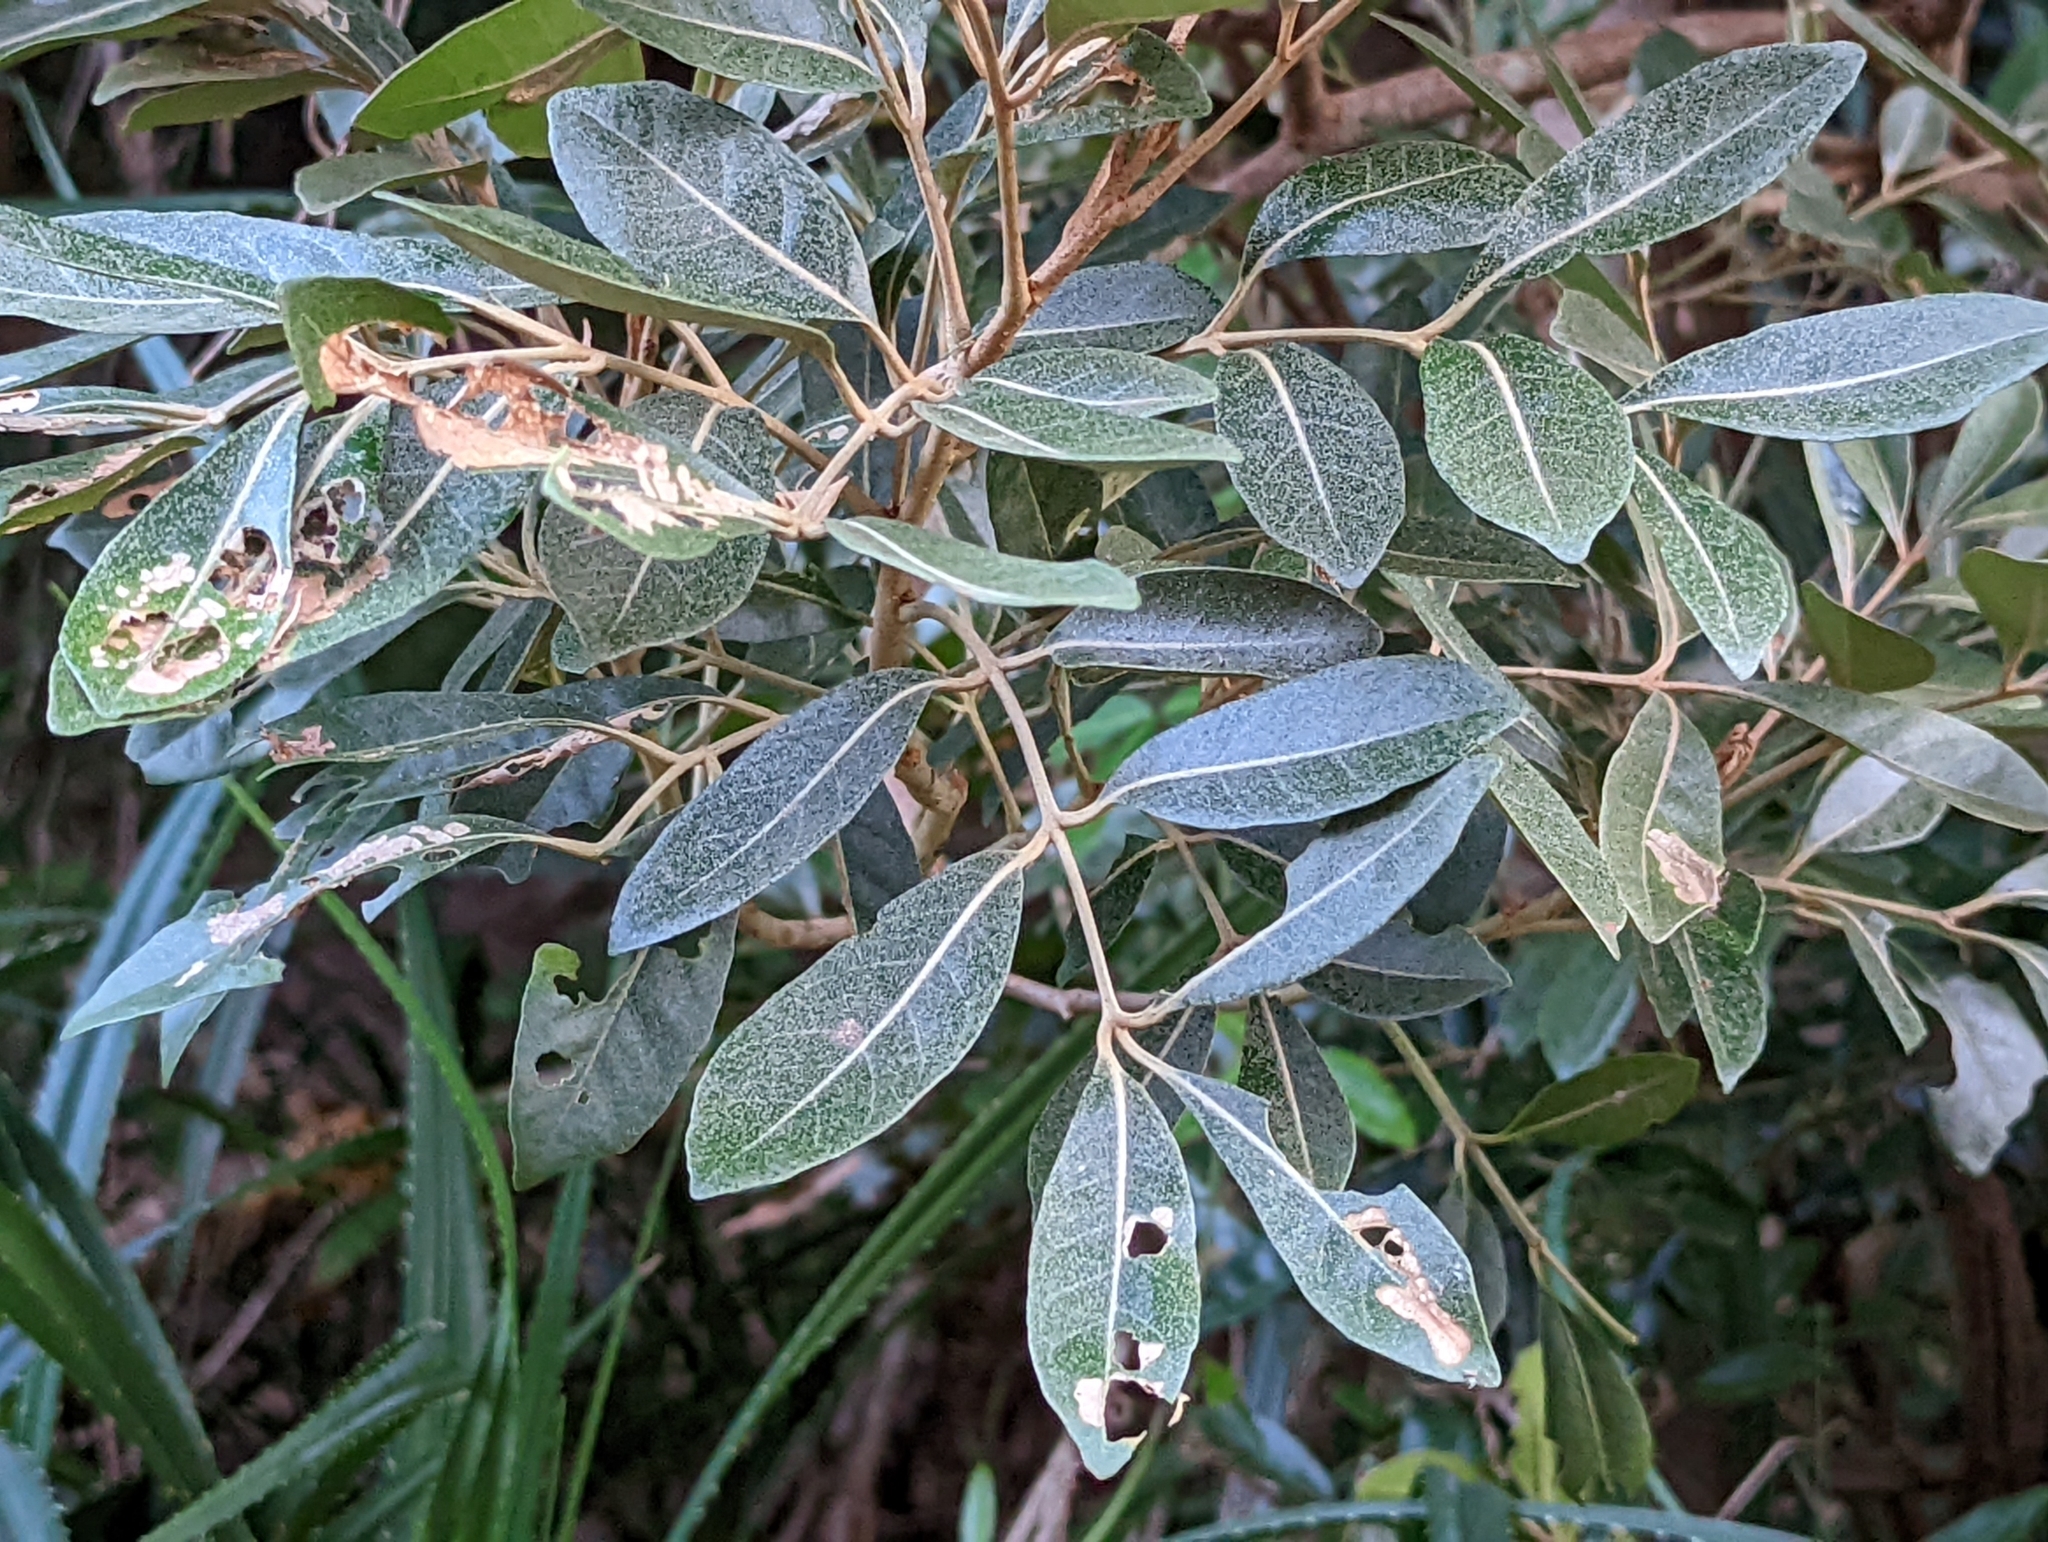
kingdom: Plantae
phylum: Tracheophyta
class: Magnoliopsida
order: Sapindales
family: Meliaceae
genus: Aglaia
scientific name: Aglaia elaeagnoidea
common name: Droopyleaf
